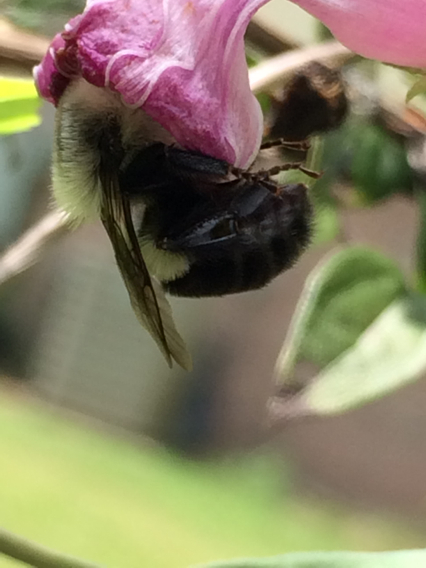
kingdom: Animalia
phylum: Arthropoda
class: Insecta
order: Hymenoptera
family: Apidae
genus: Bombus
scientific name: Bombus impatiens
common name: Common eastern bumble bee
